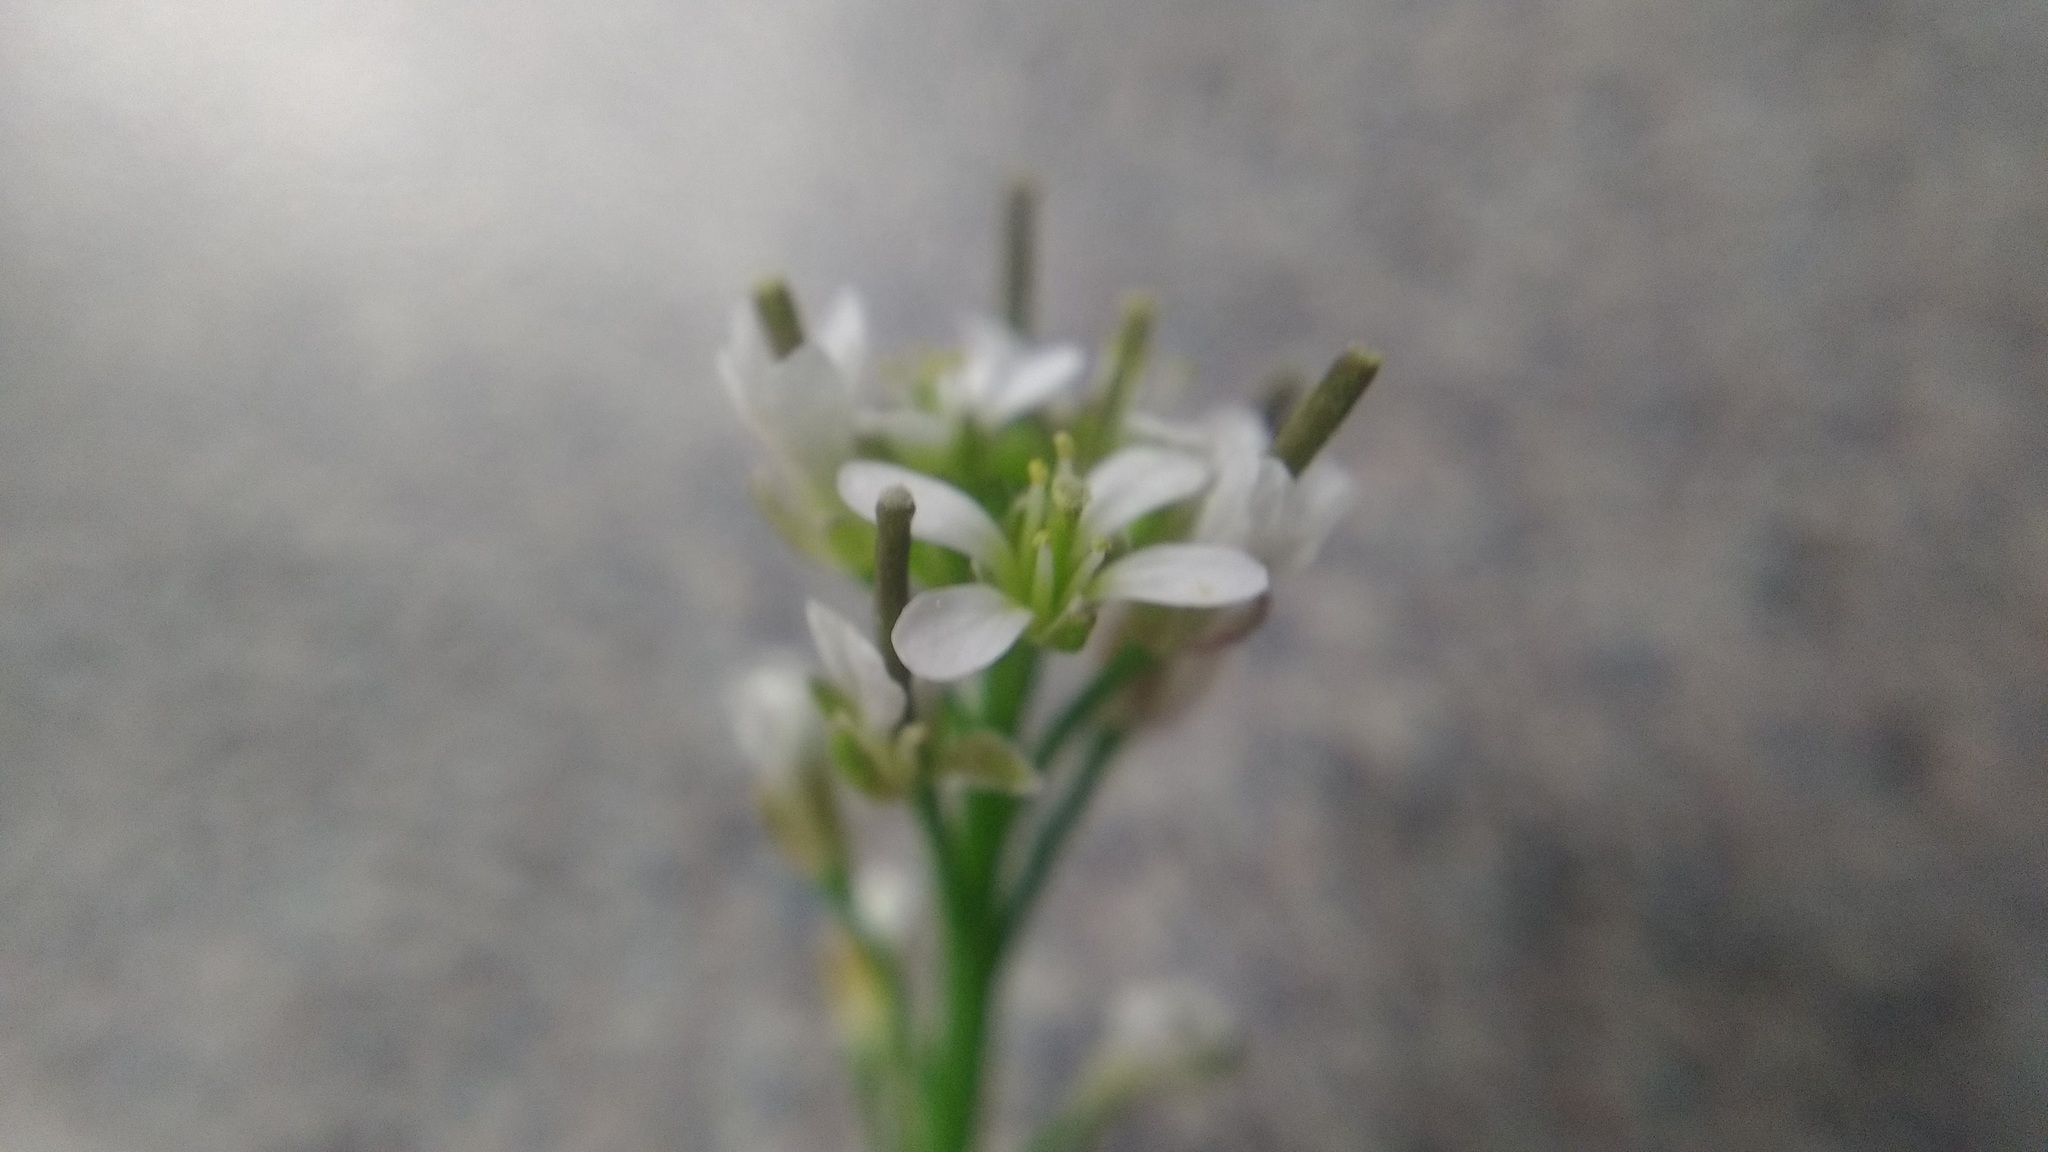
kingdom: Plantae
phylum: Tracheophyta
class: Magnoliopsida
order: Brassicales
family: Brassicaceae
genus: Cardamine
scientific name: Cardamine hirsuta
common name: Hairy bittercress
